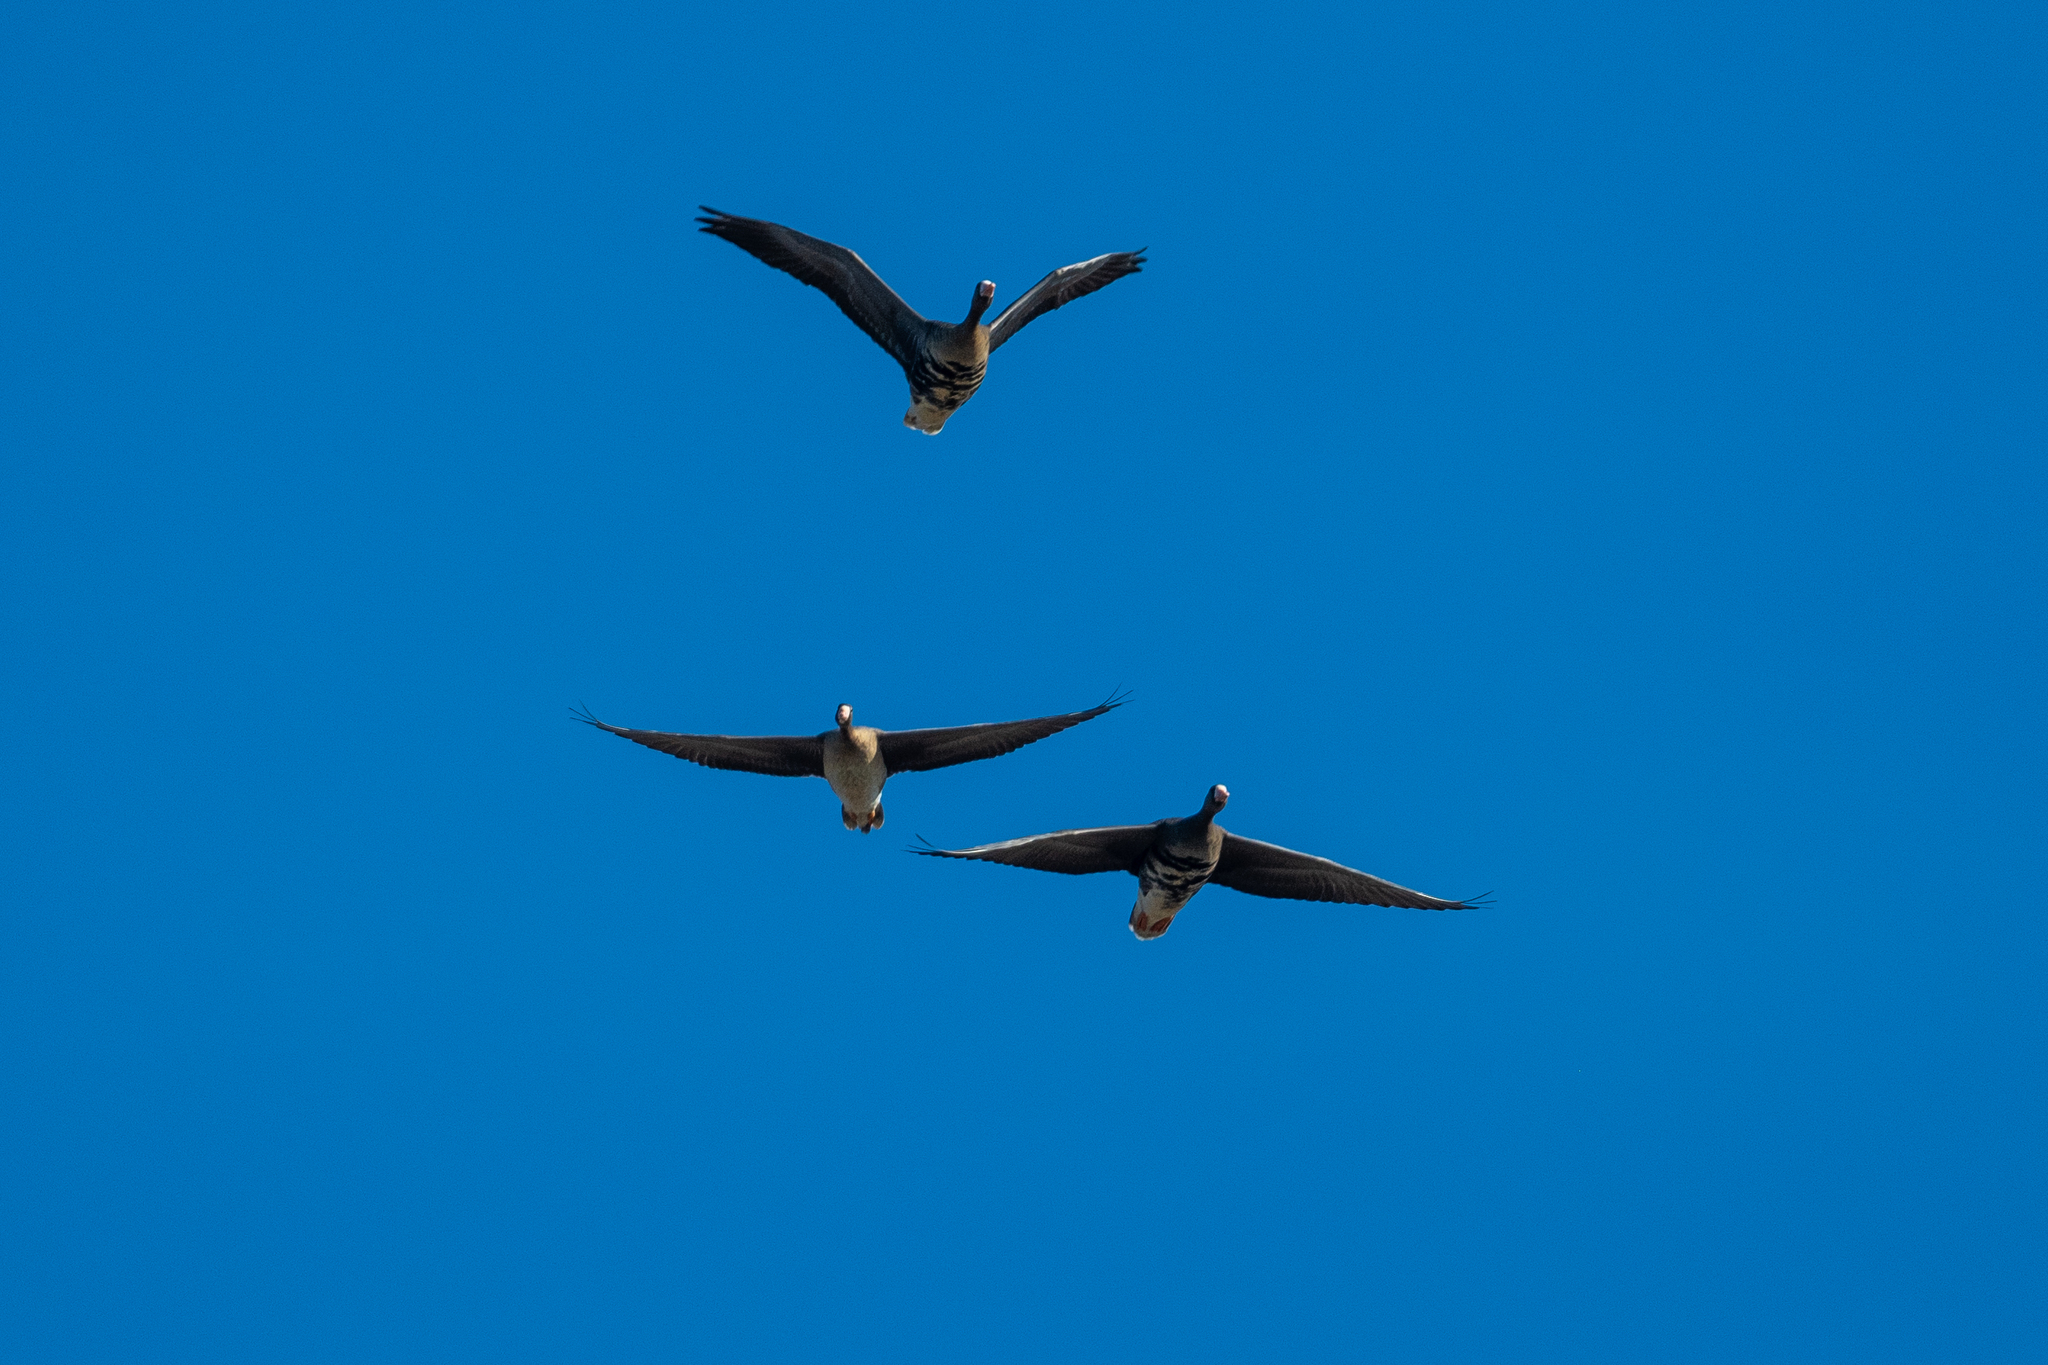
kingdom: Animalia
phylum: Chordata
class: Aves
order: Anseriformes
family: Anatidae
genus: Anser
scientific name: Anser albifrons
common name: Greater white-fronted goose
